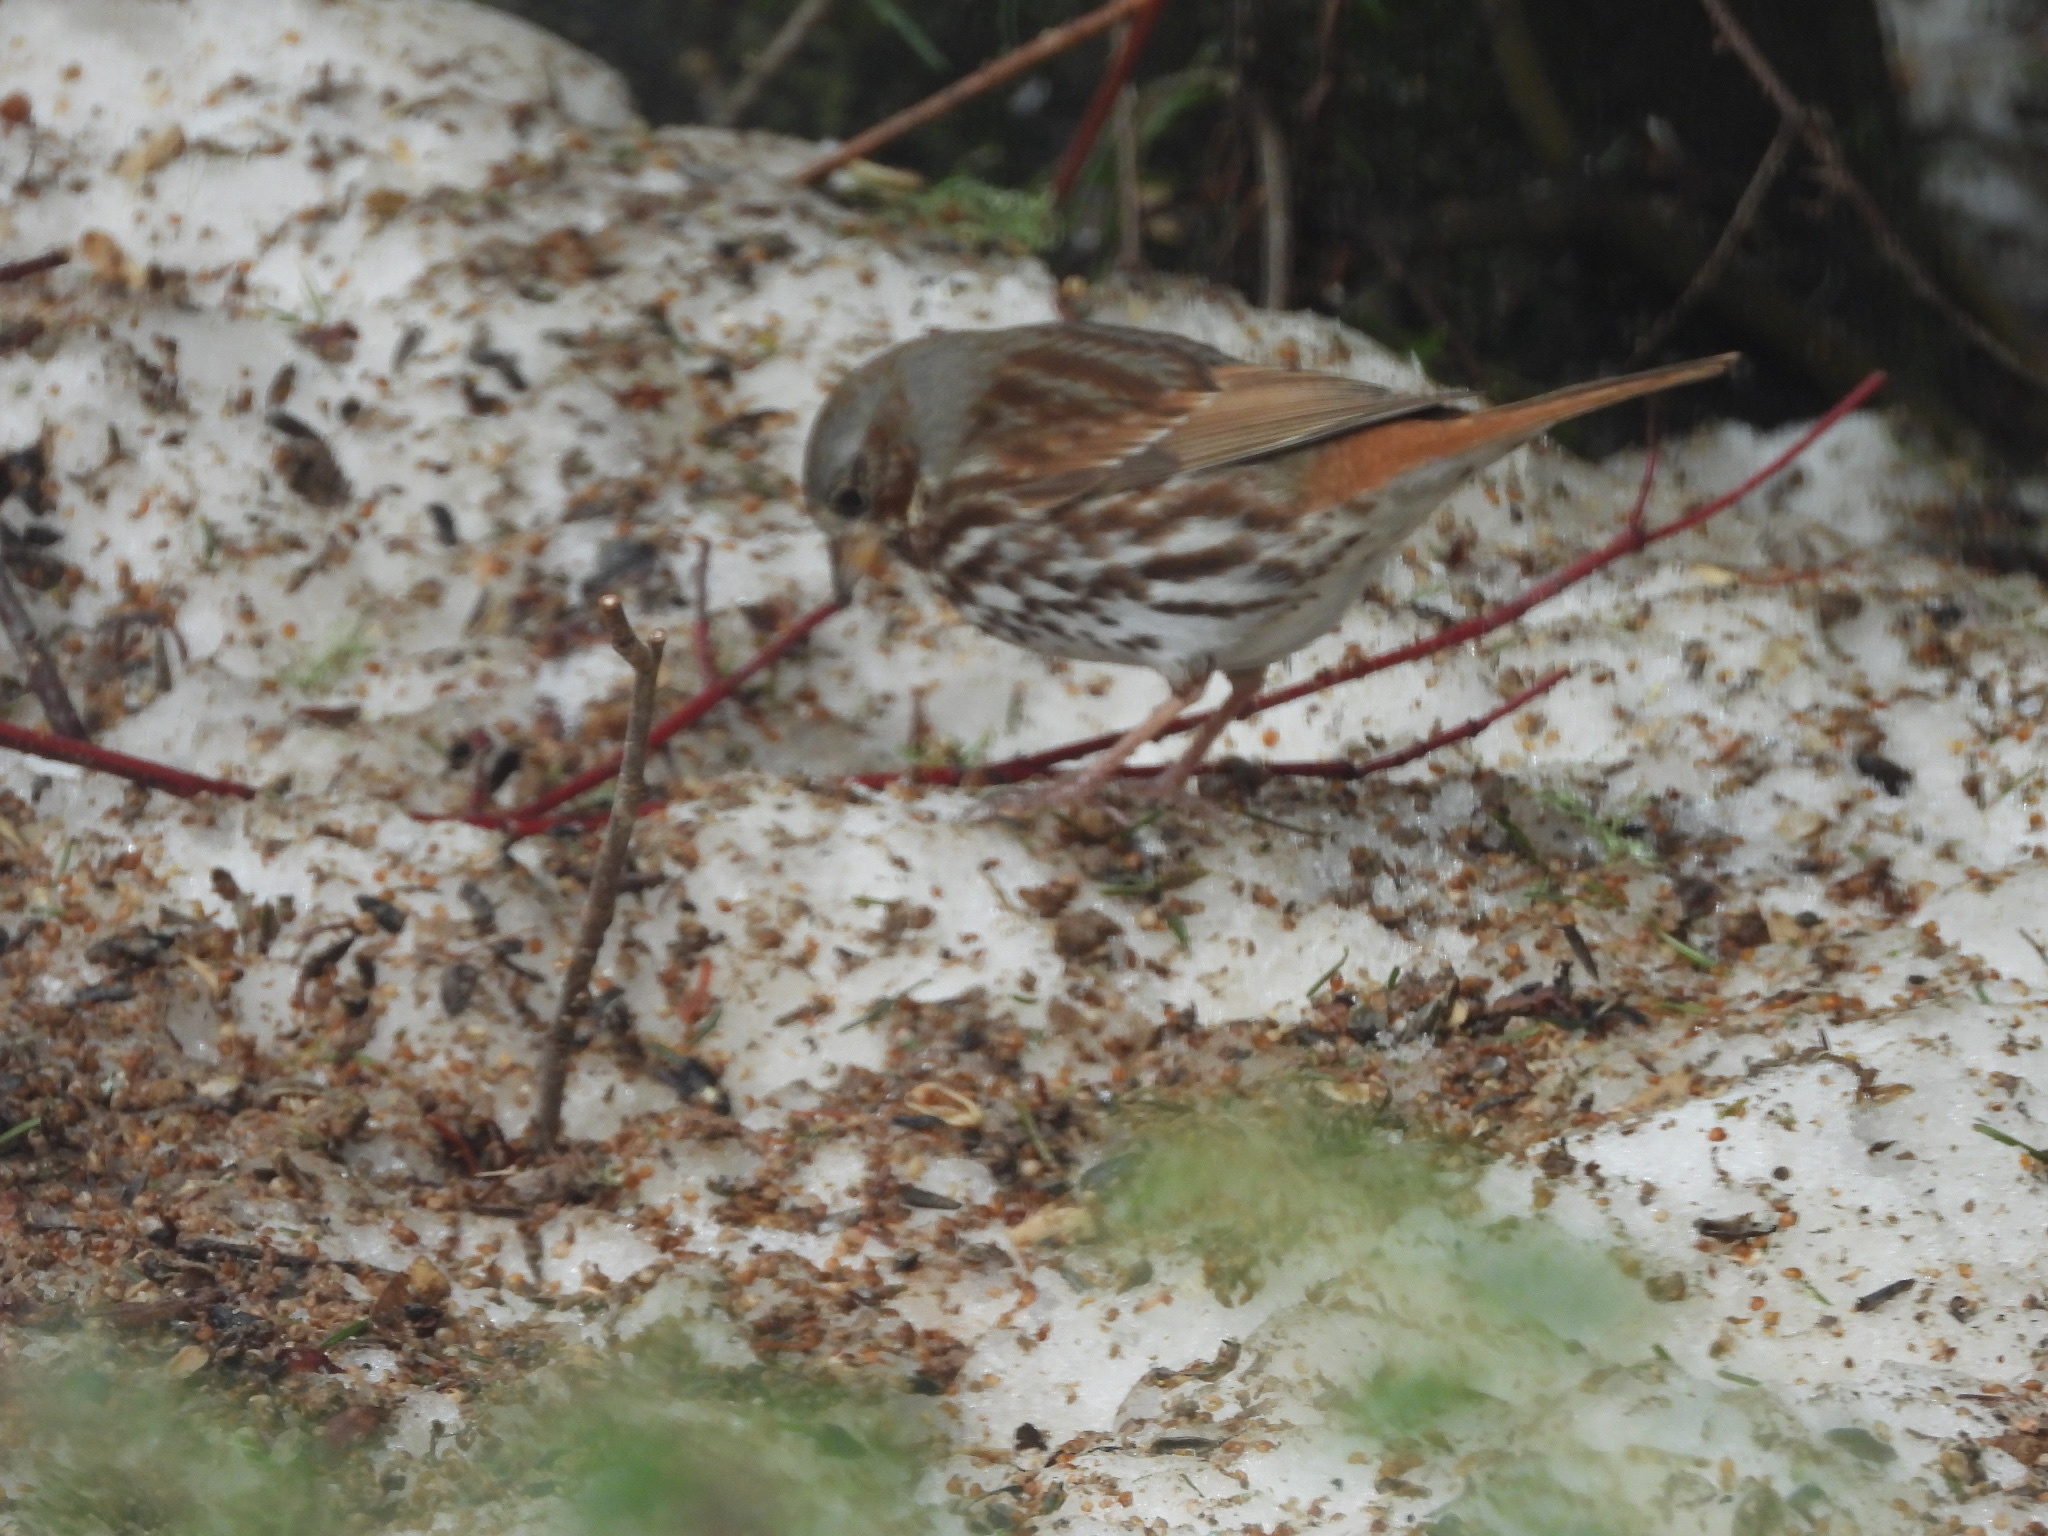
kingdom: Animalia
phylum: Chordata
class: Aves
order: Passeriformes
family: Passerellidae
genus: Passerella
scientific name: Passerella iliaca
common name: Fox sparrow
